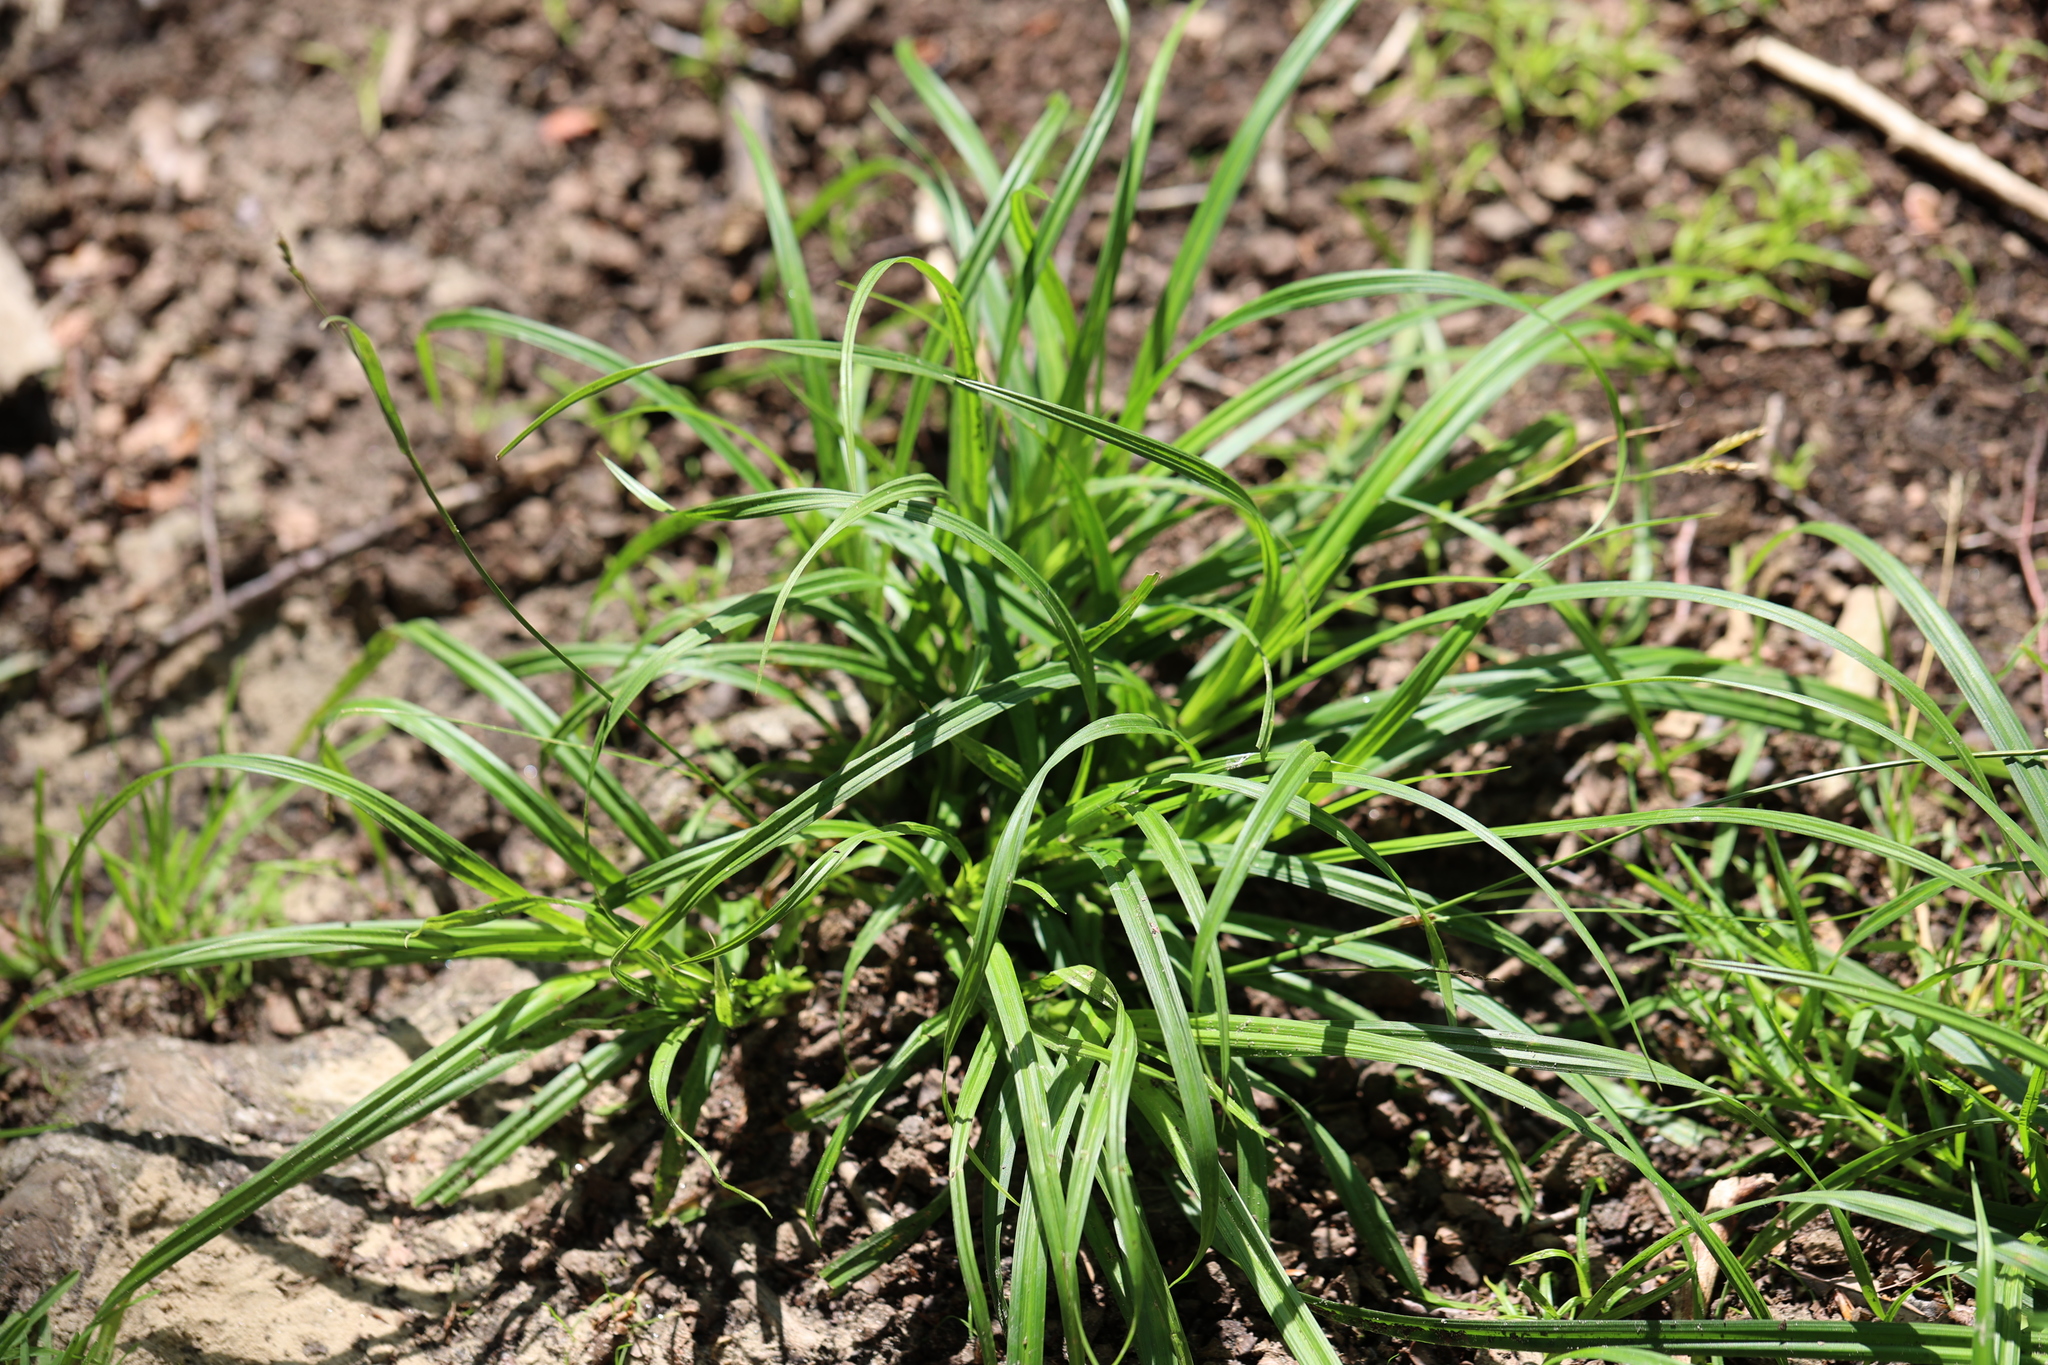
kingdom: Plantae
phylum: Tracheophyta
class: Liliopsida
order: Poales
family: Cyperaceae
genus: Carex
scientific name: Carex sylvatica
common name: Wood-sedge
